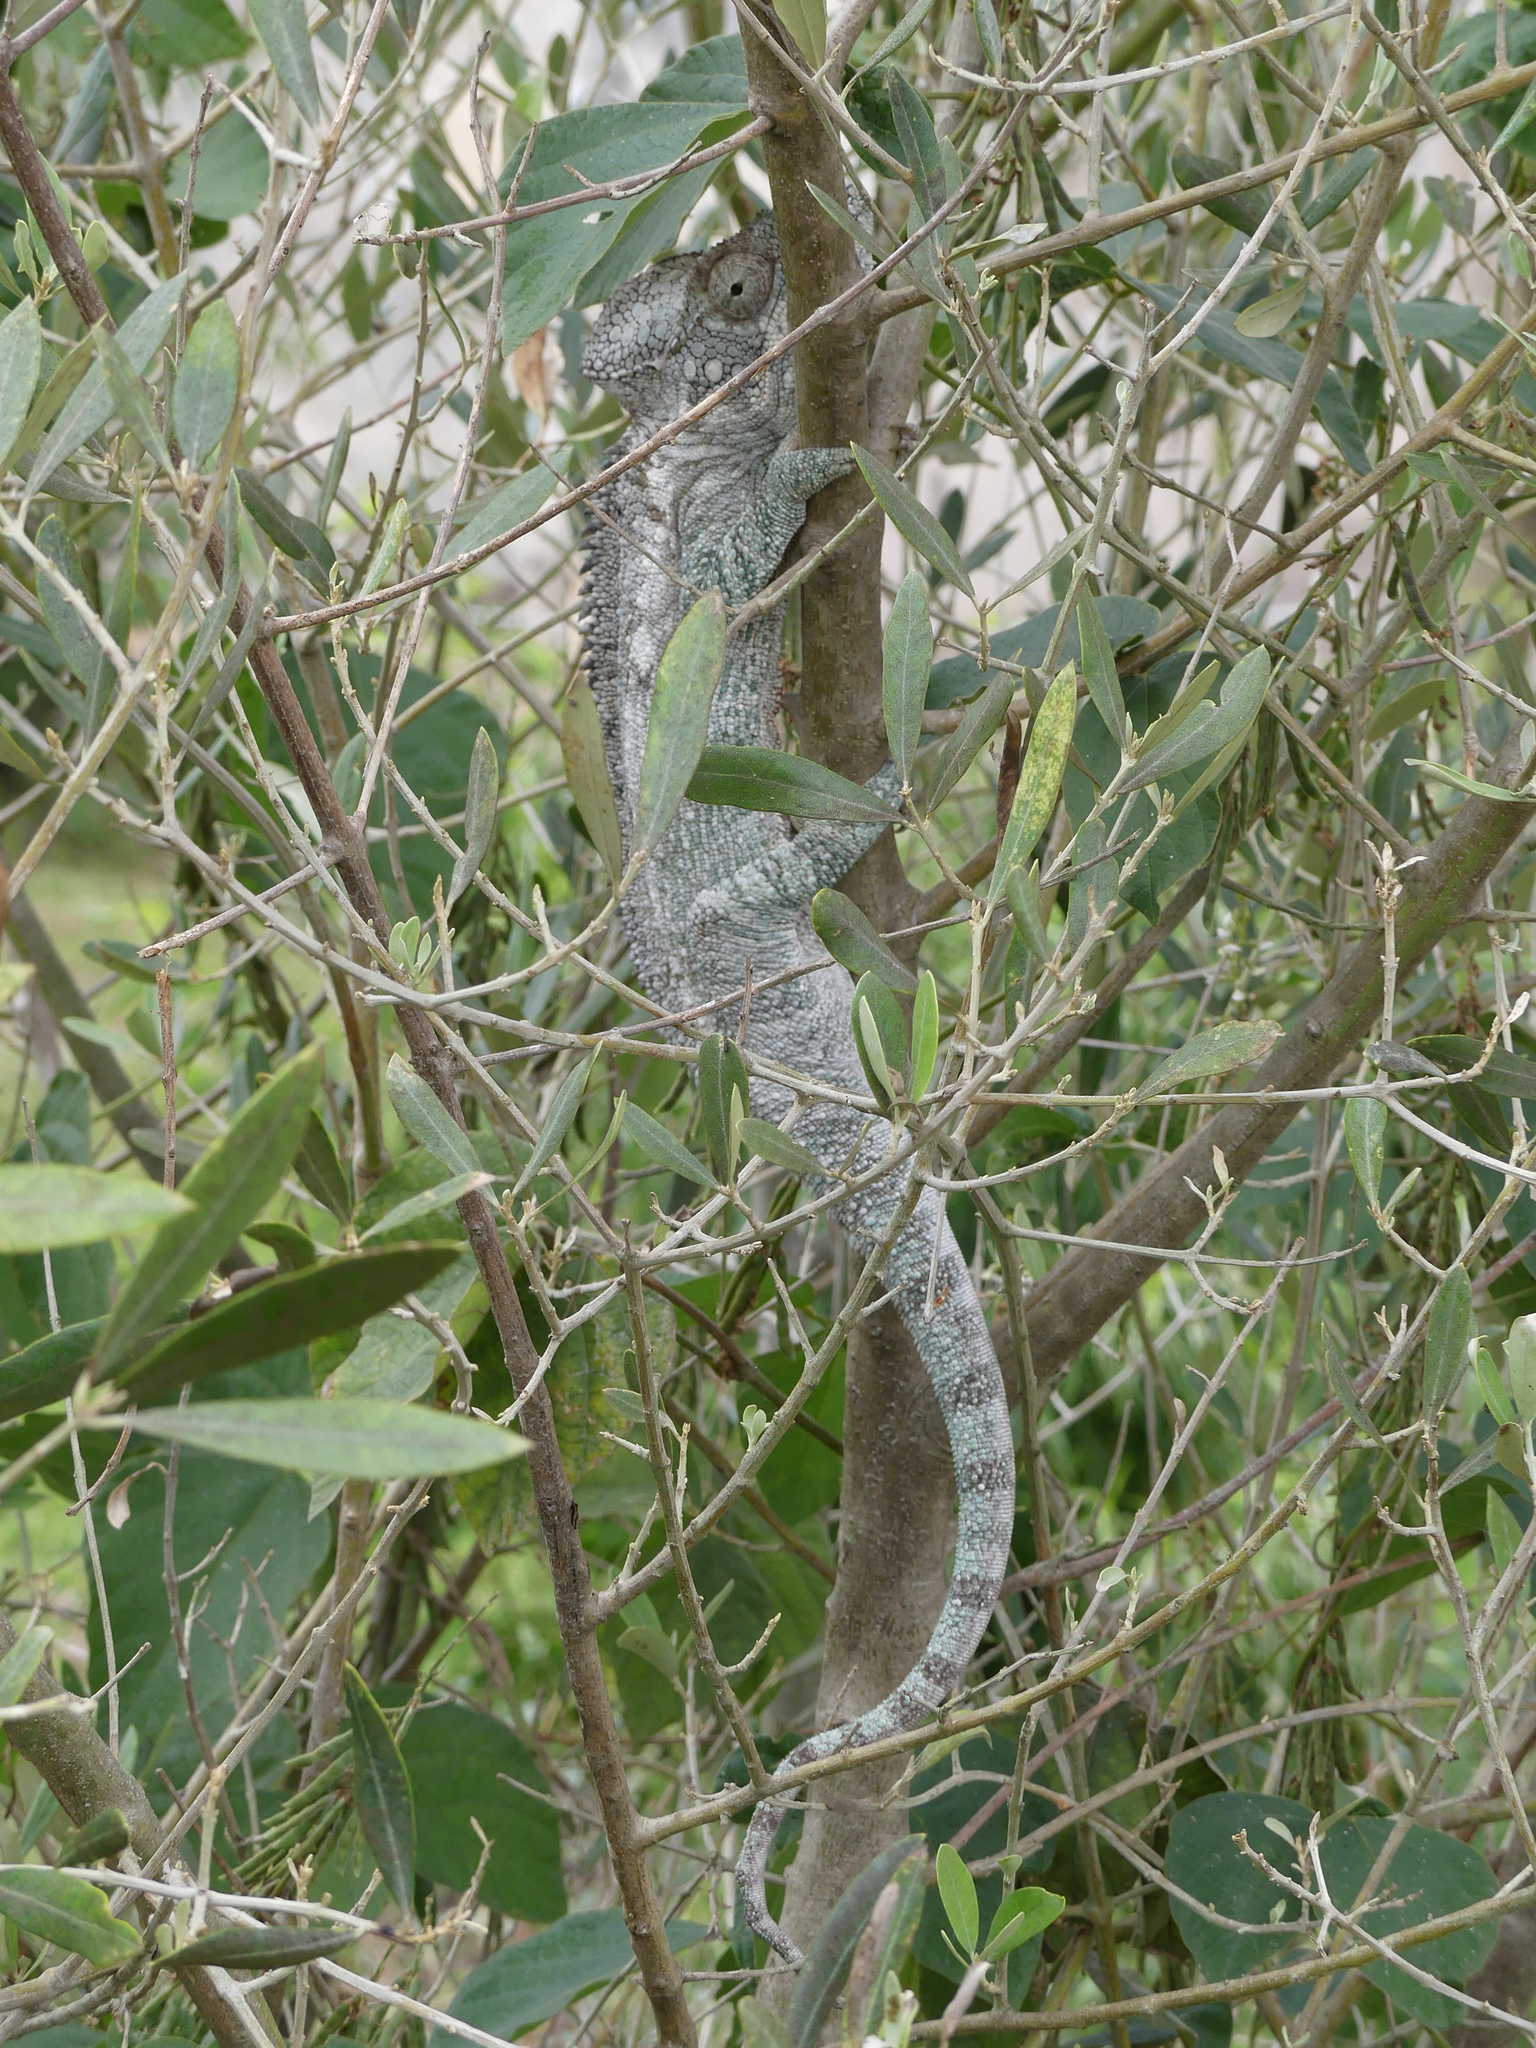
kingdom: Animalia
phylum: Chordata
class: Squamata
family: Chamaeleonidae
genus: Furcifer
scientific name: Furcifer oustaleti
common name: Oustalet's chameleon
